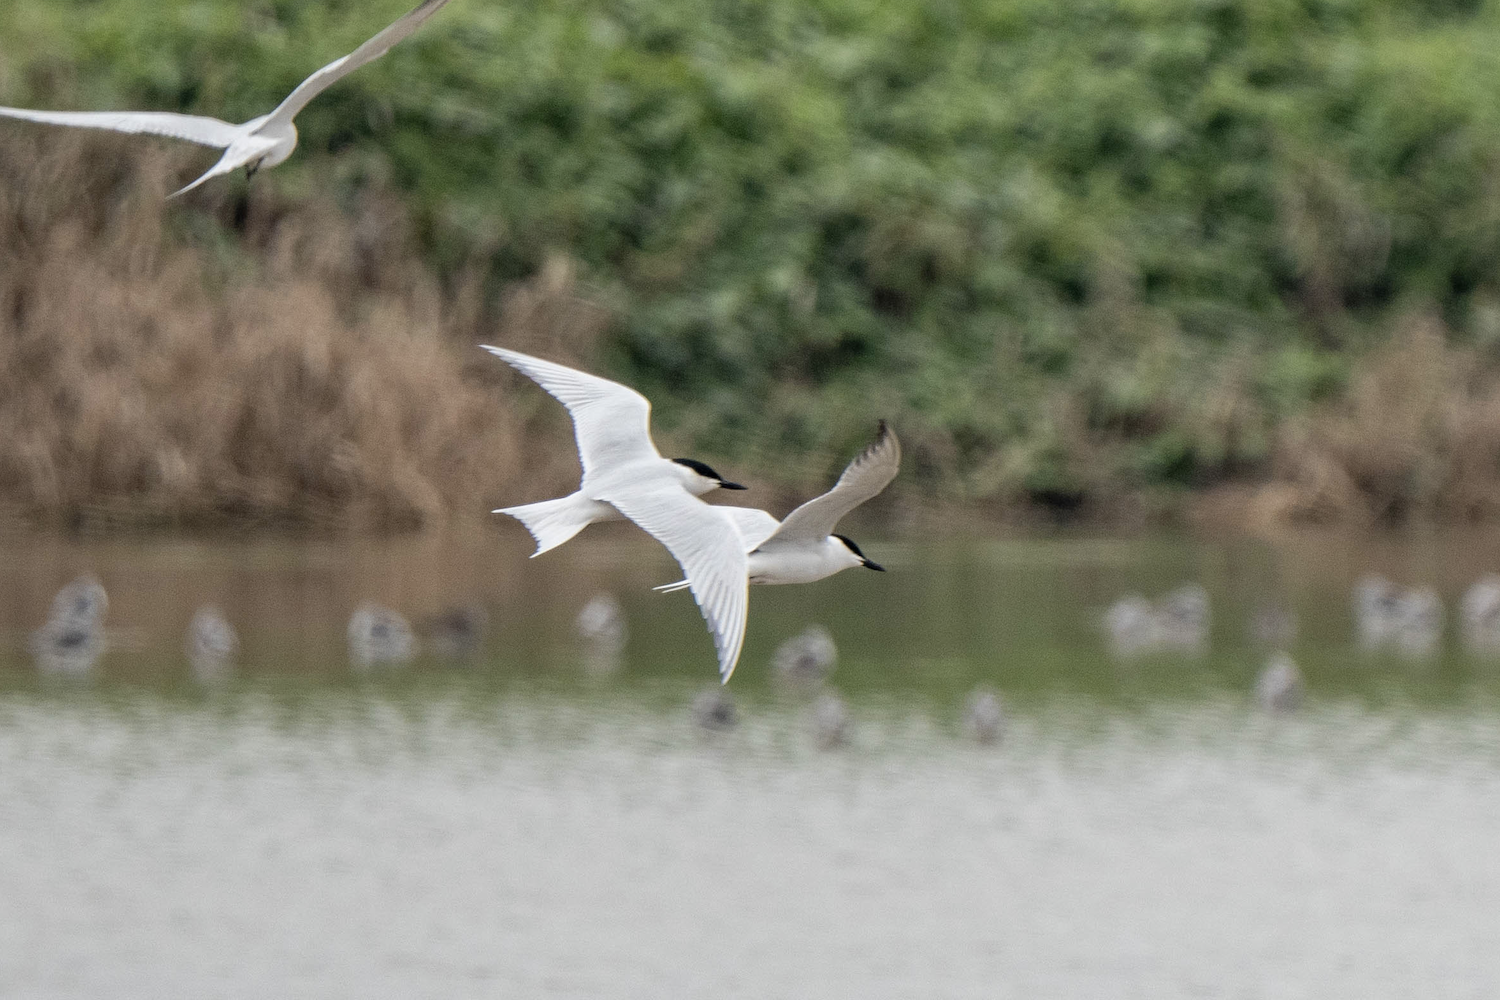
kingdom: Animalia
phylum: Chordata
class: Aves
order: Charadriiformes
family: Laridae
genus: Gelochelidon
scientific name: Gelochelidon nilotica
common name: Gull-billed tern
